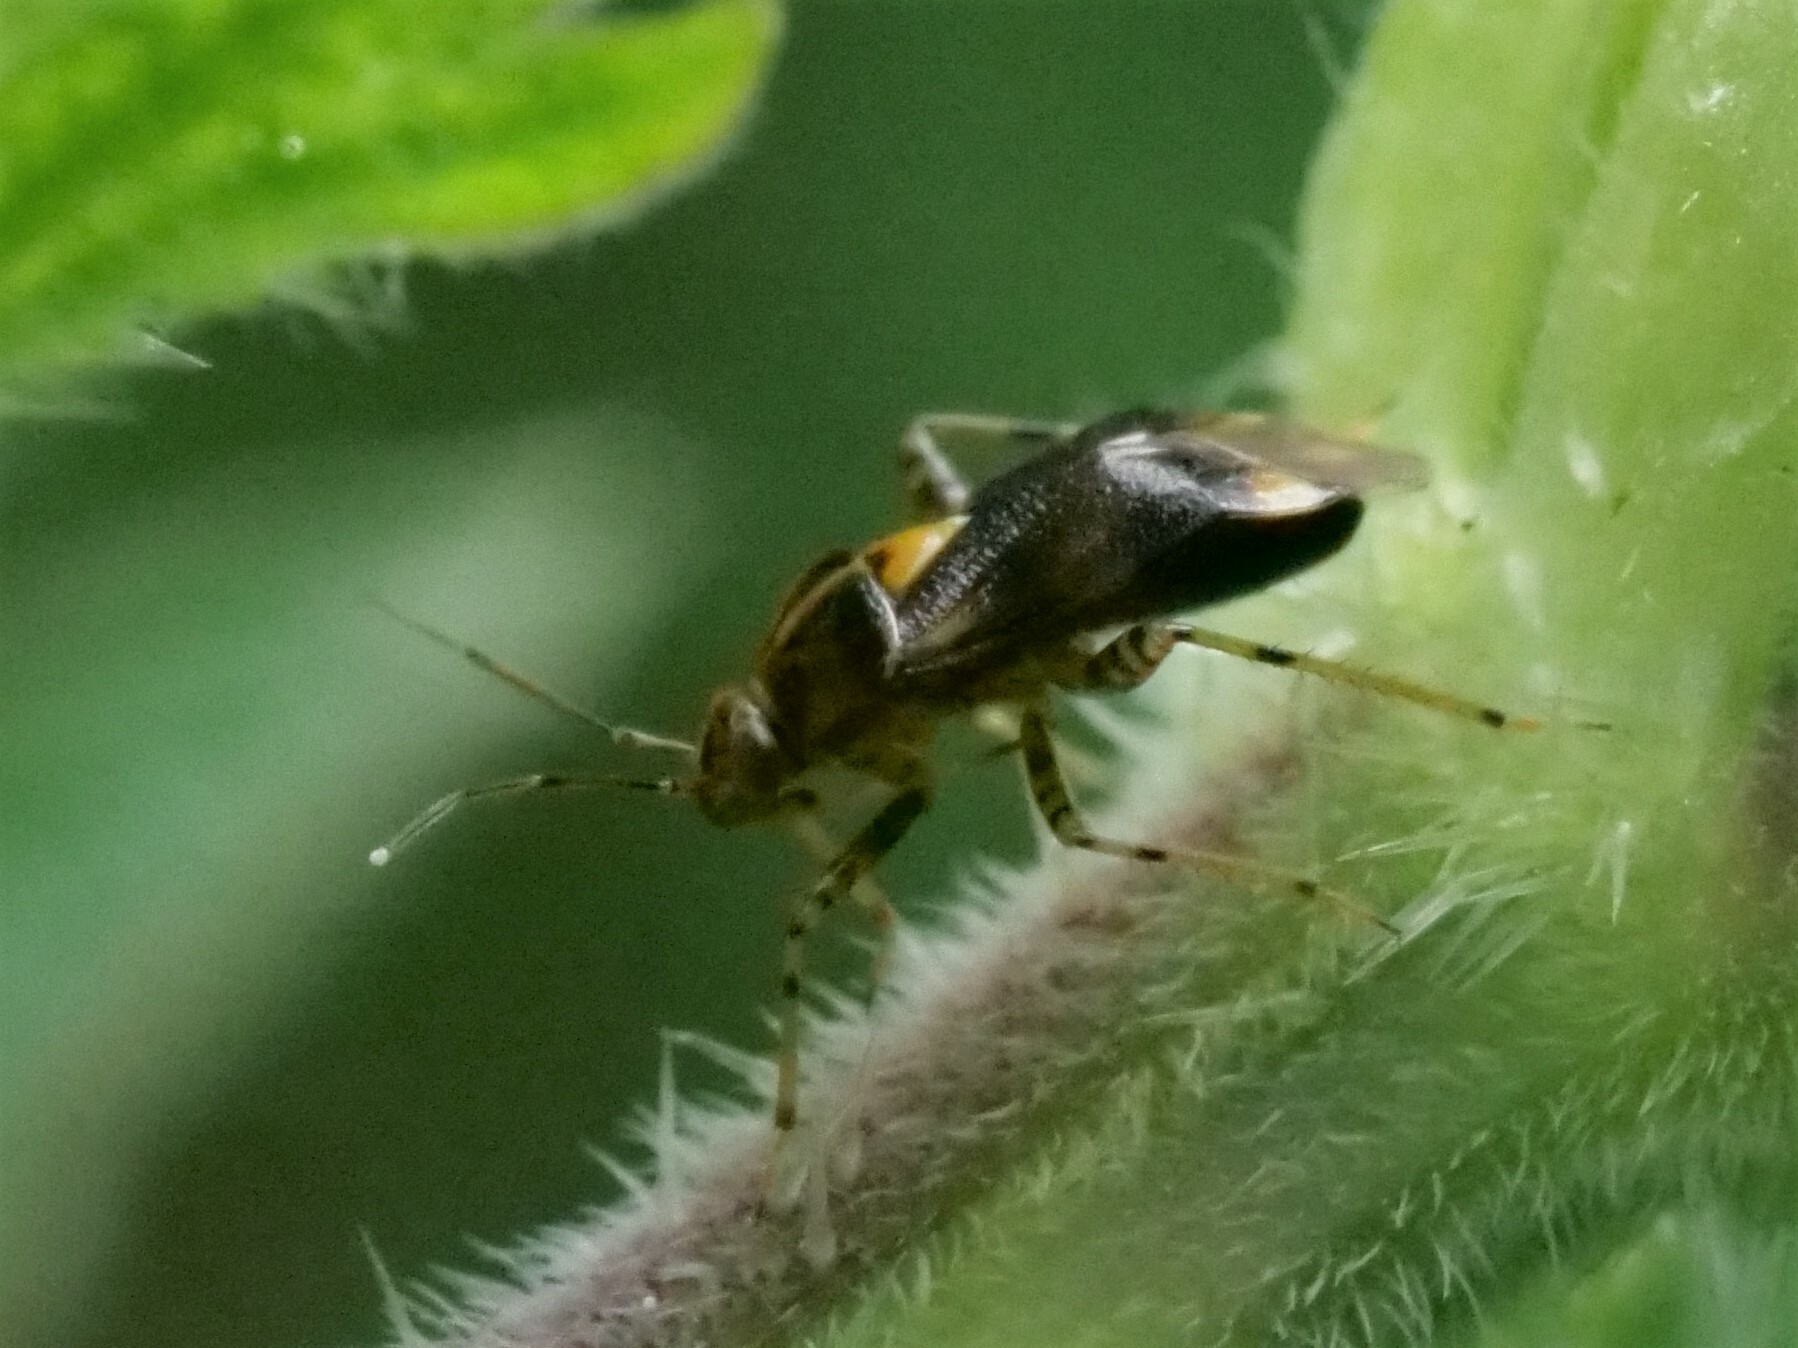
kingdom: Animalia
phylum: Arthropoda
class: Insecta
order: Hemiptera
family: Miridae
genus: Liocoris
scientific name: Liocoris tripustulatus
